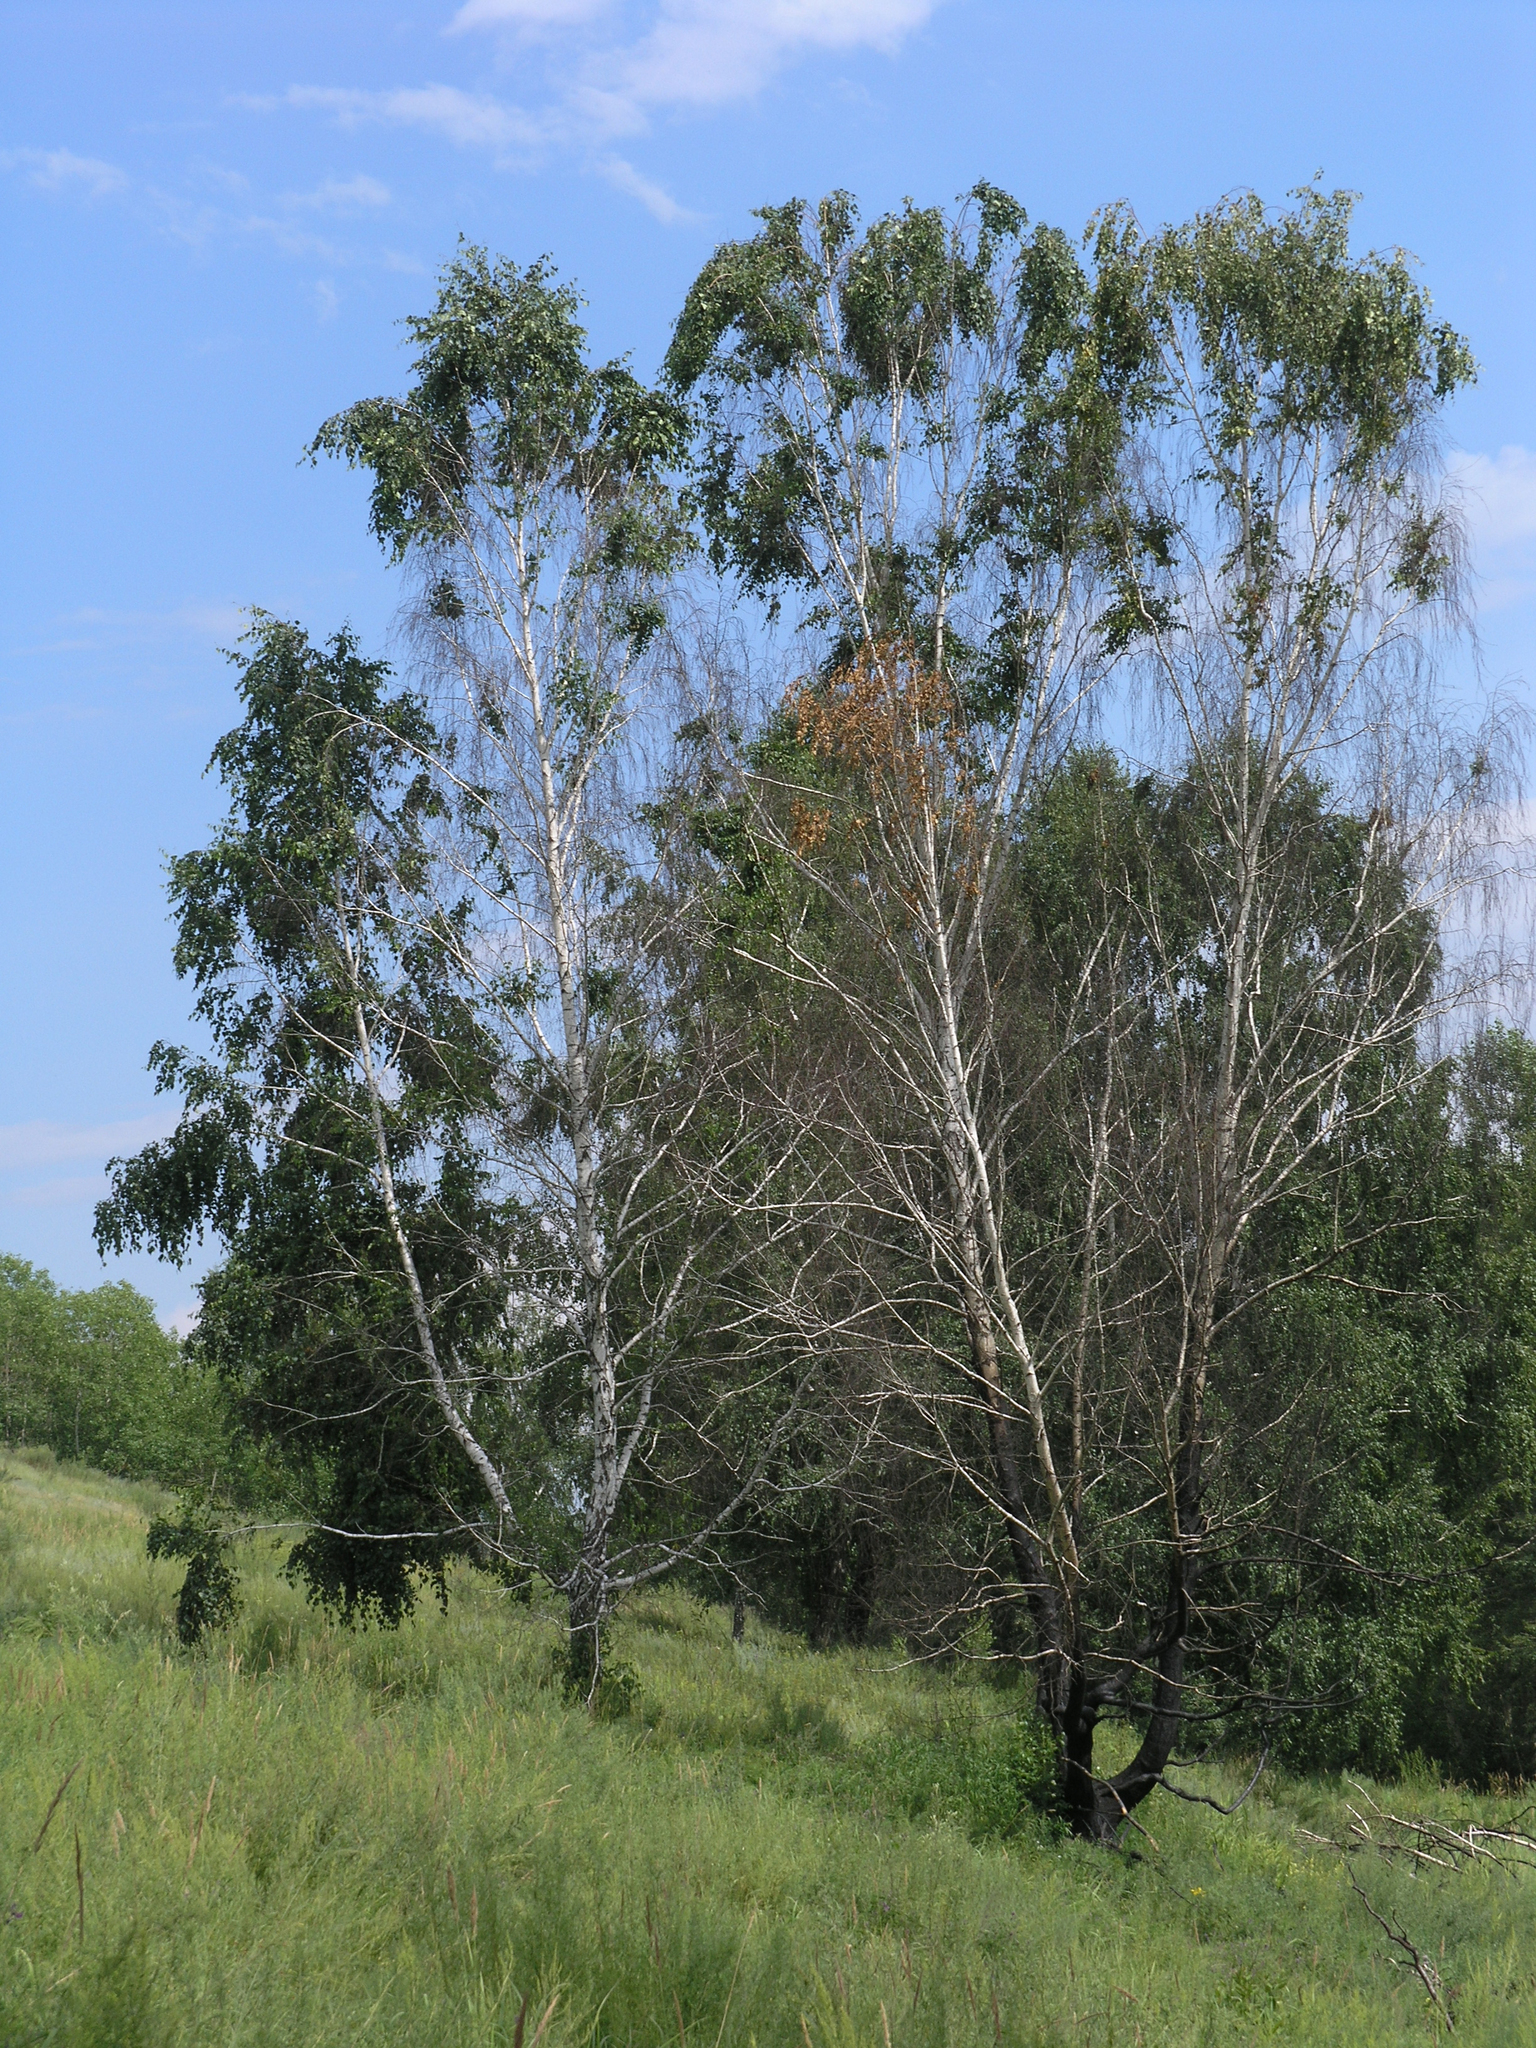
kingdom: Plantae
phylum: Tracheophyta
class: Magnoliopsida
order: Fagales
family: Betulaceae
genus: Betula
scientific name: Betula pendula
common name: Silver birch
